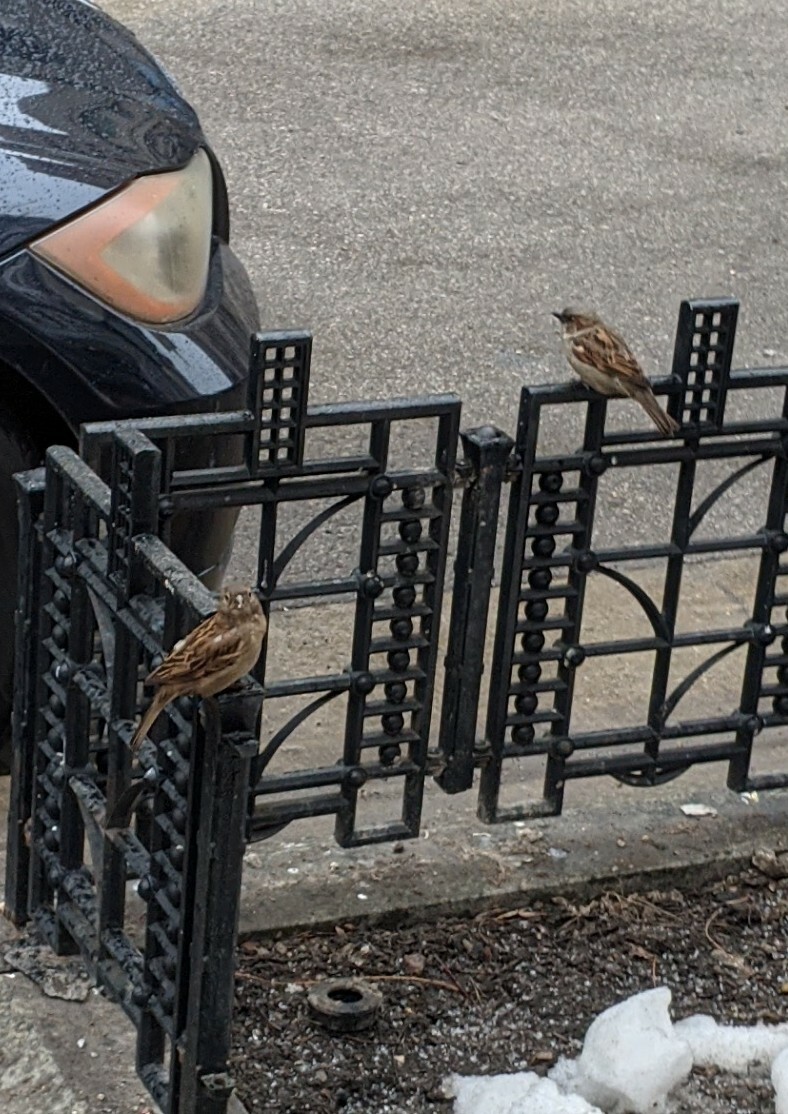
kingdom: Animalia
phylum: Chordata
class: Aves
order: Passeriformes
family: Passeridae
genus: Passer
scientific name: Passer domesticus
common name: House sparrow
